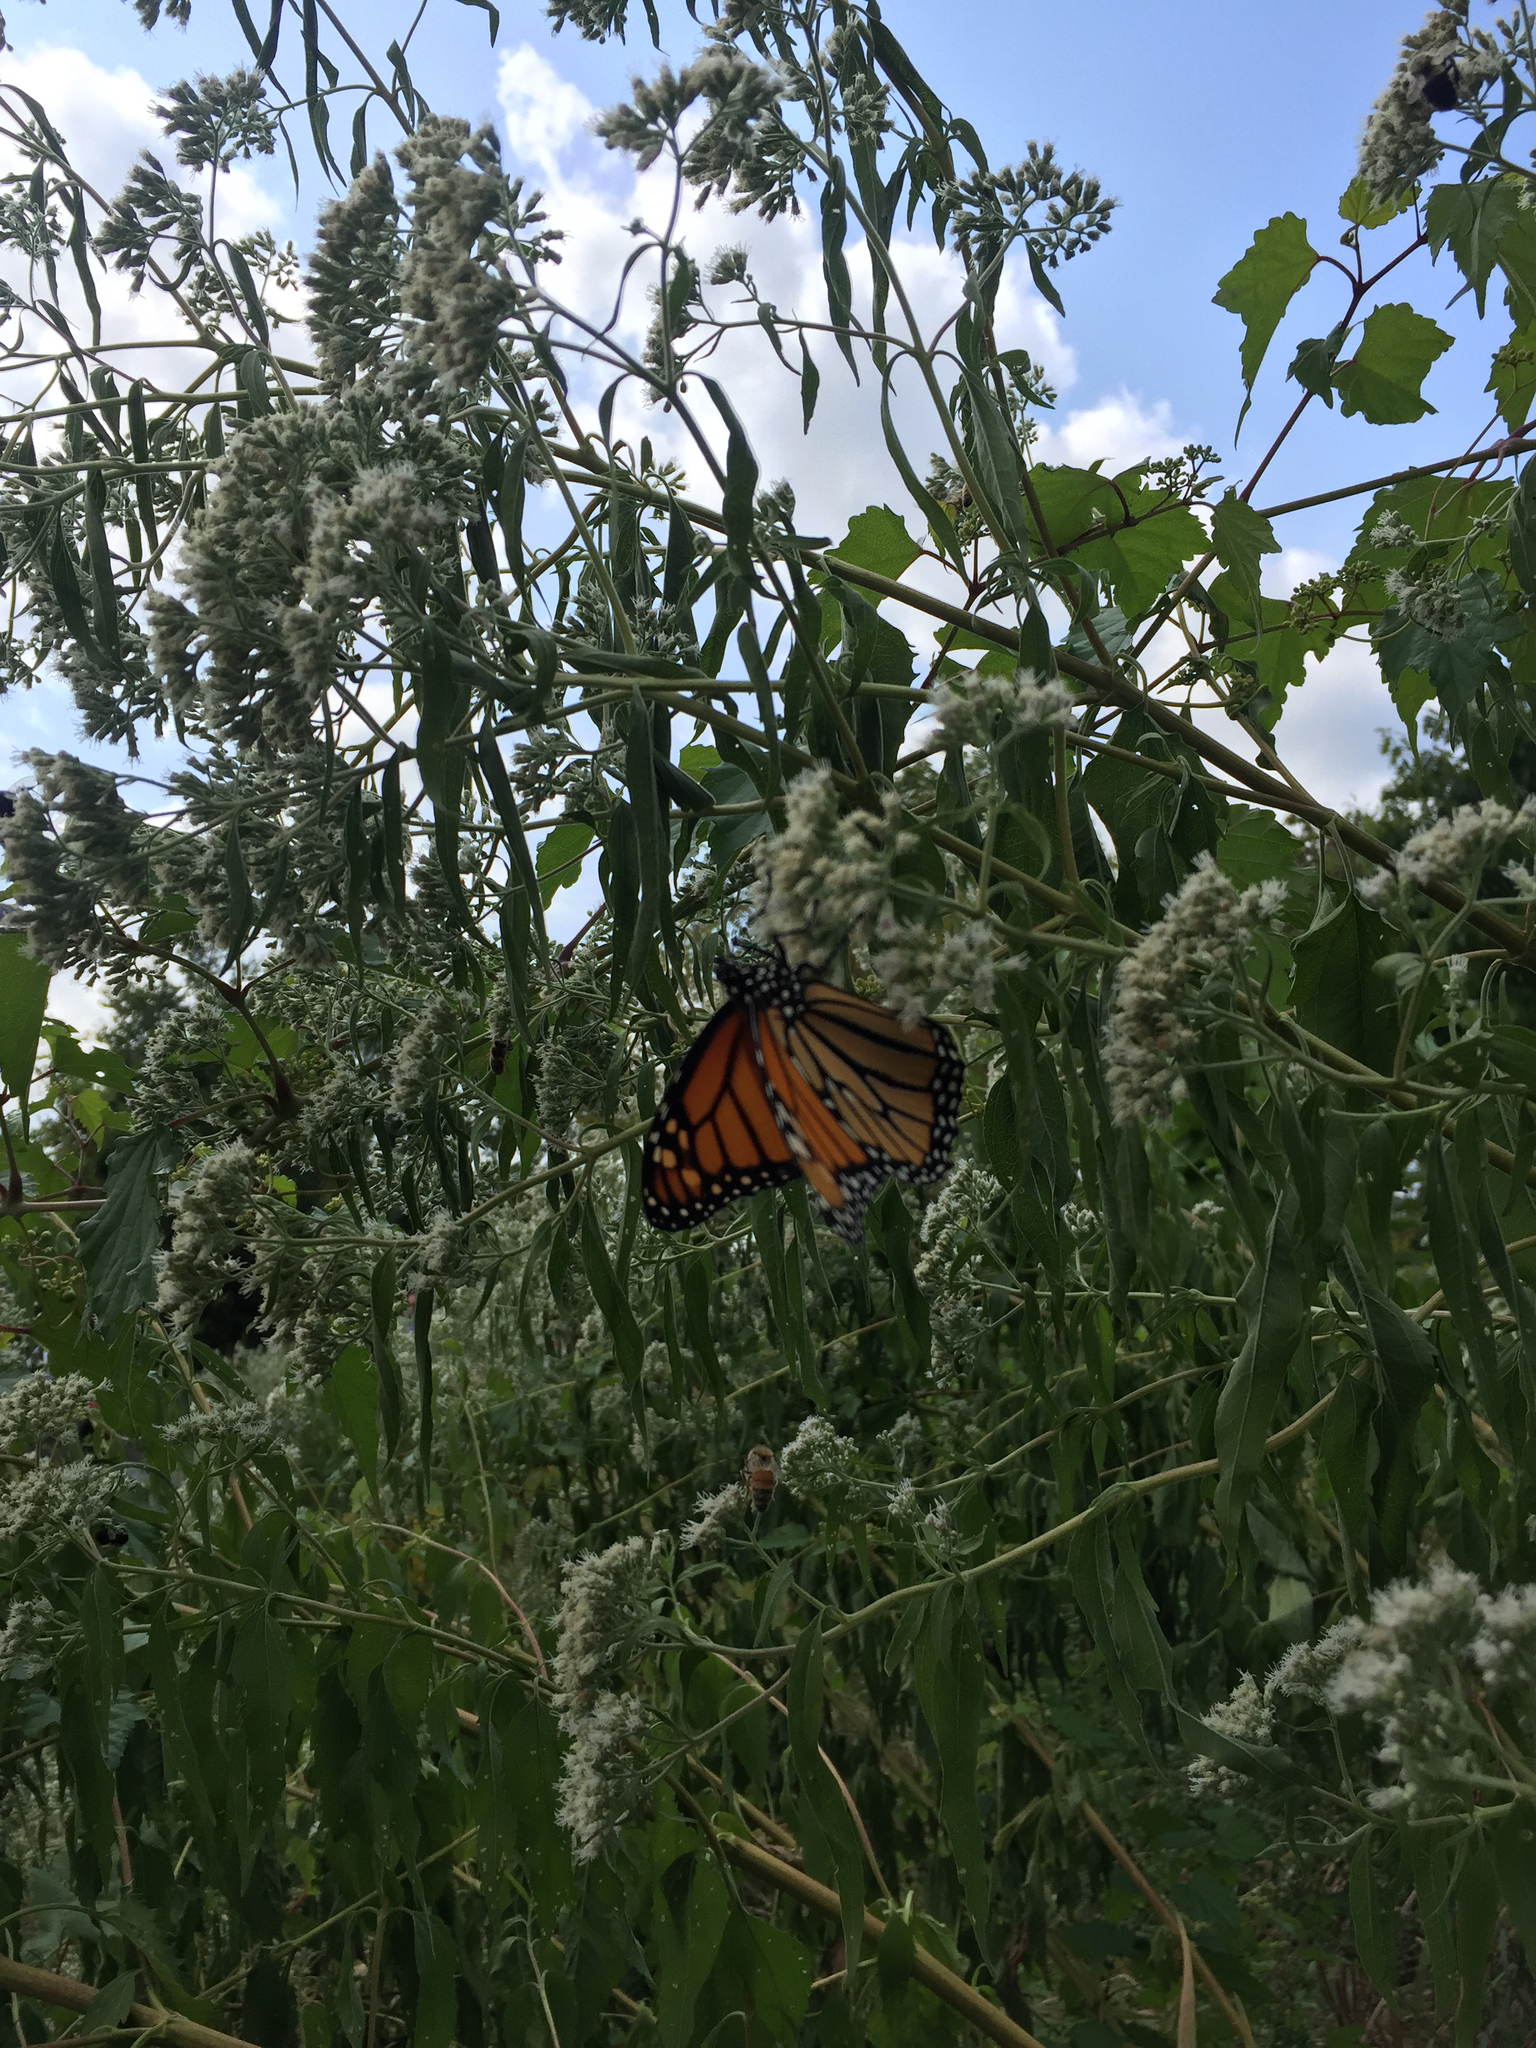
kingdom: Animalia
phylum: Arthropoda
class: Insecta
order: Lepidoptera
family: Nymphalidae
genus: Danaus
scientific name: Danaus plexippus
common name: Monarch
